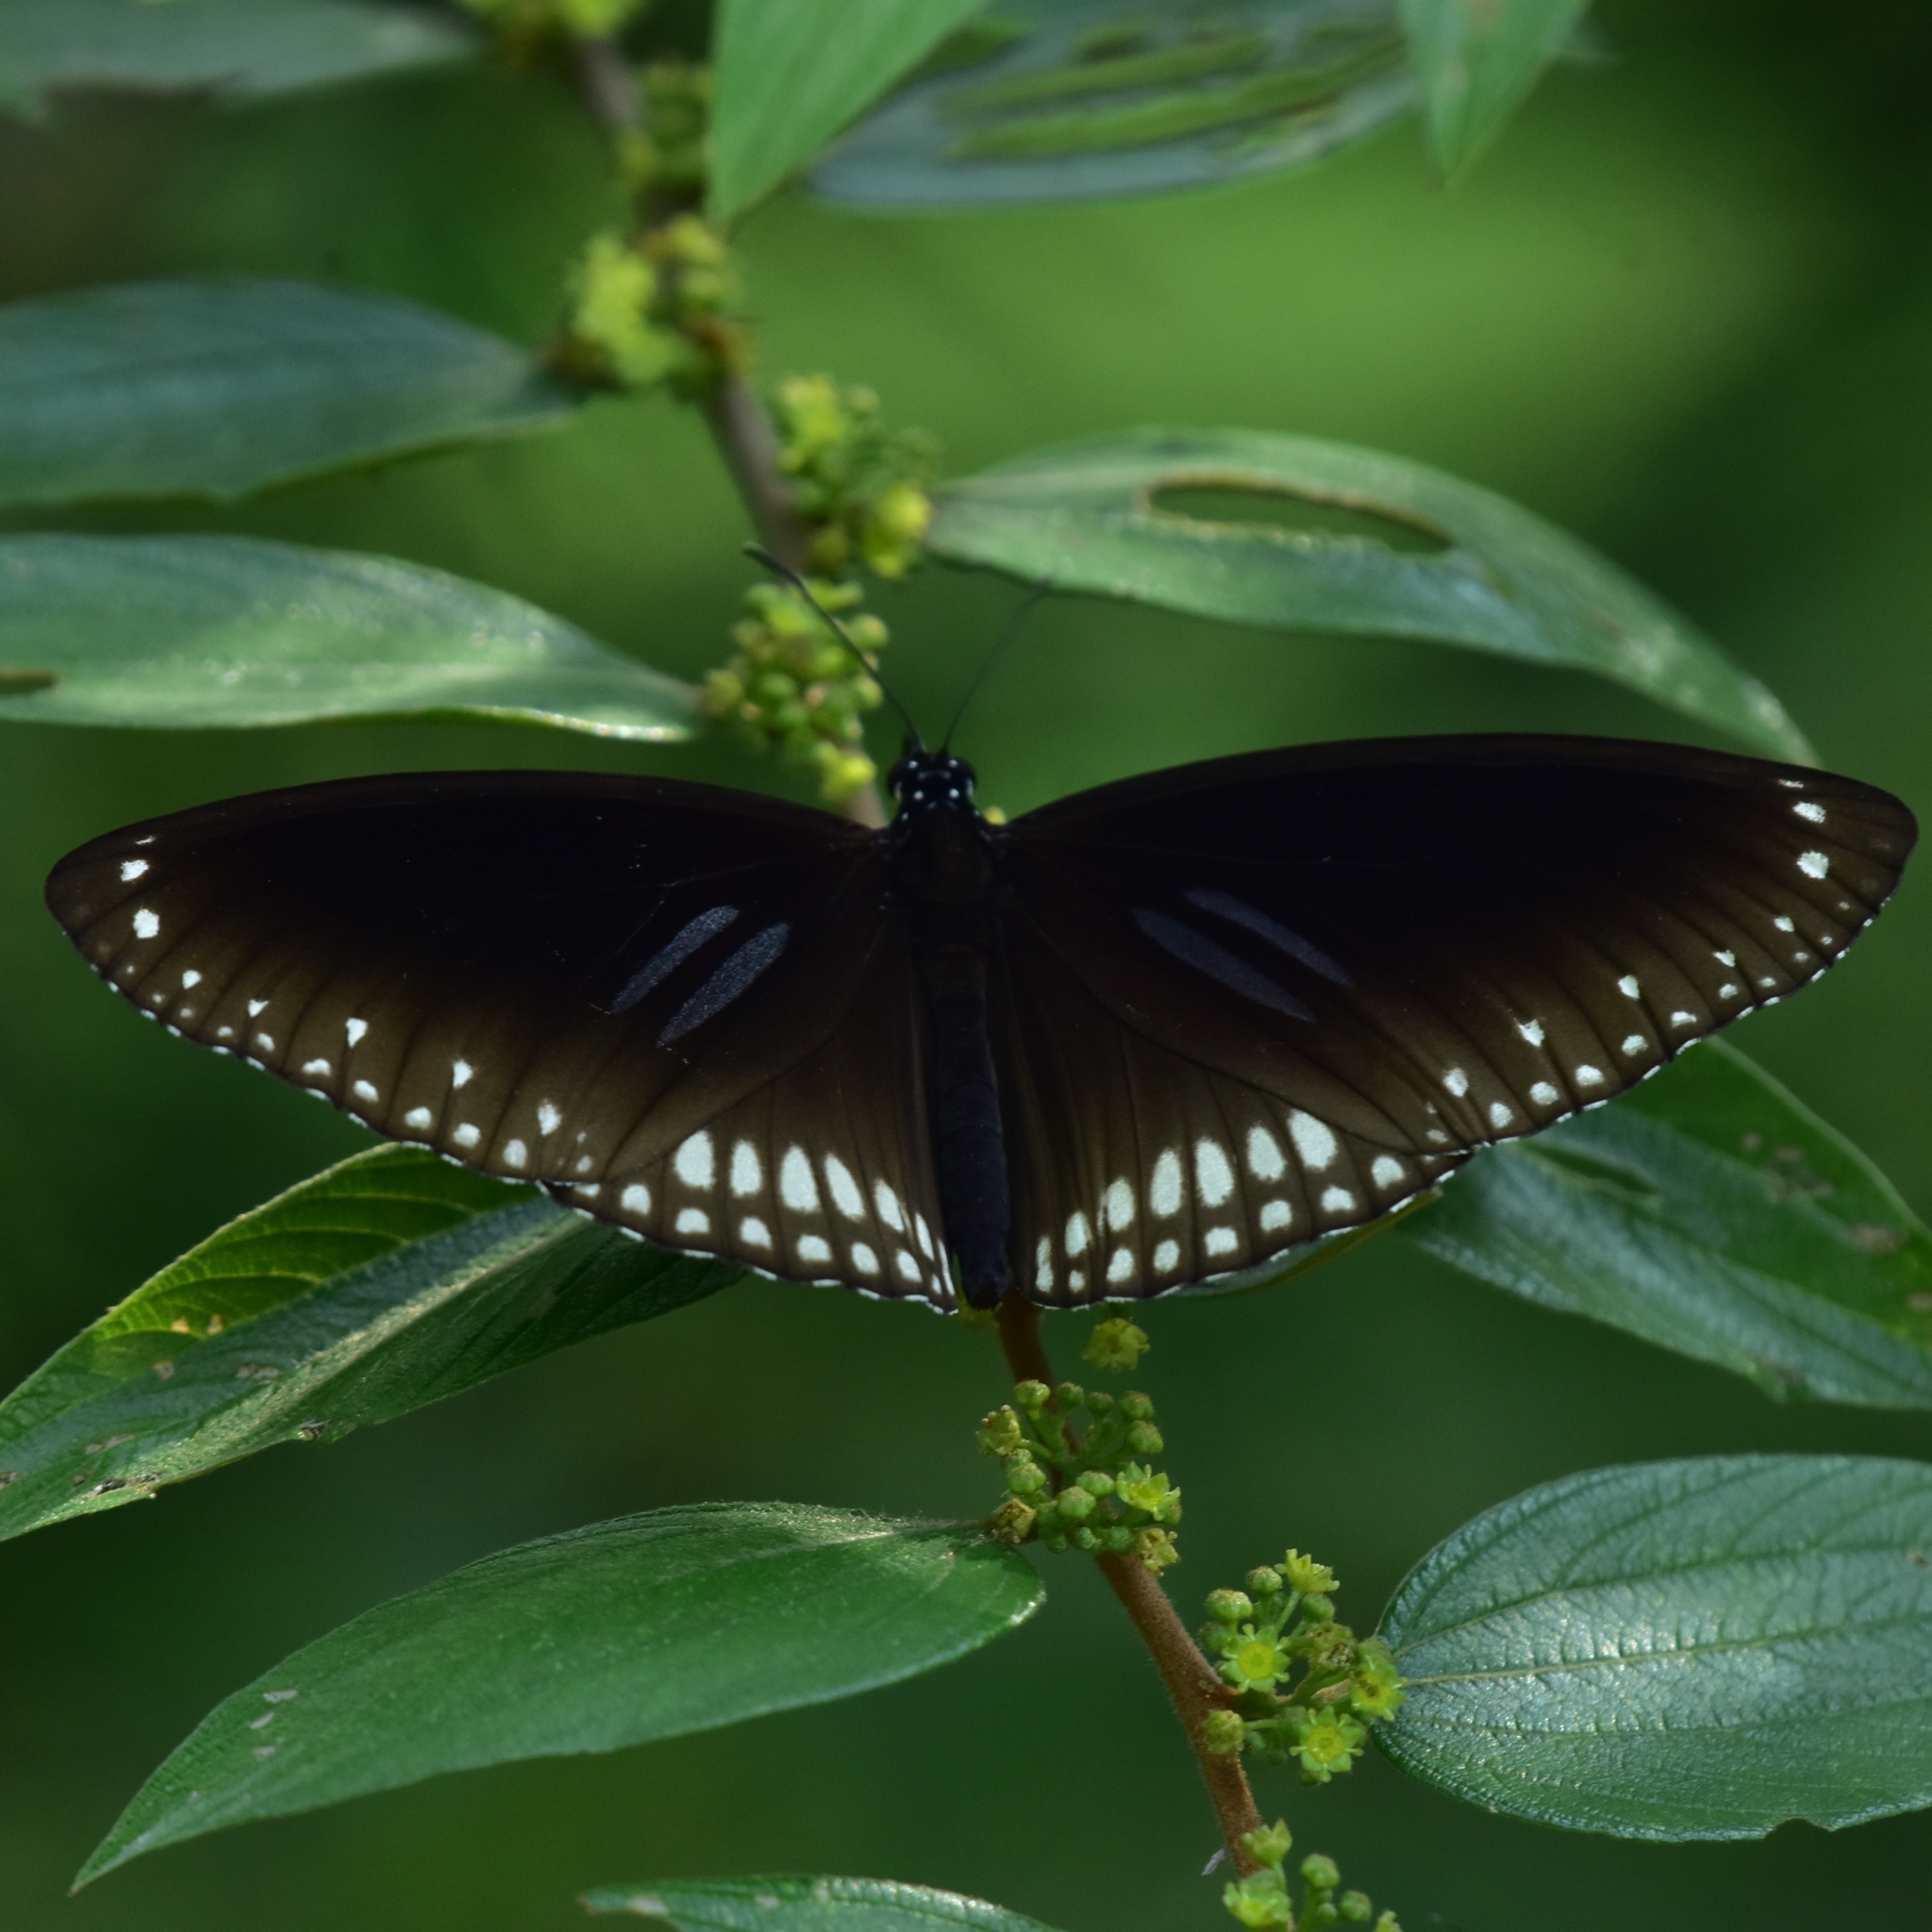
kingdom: Animalia
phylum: Arthropoda
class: Insecta
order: Lepidoptera
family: Nymphalidae
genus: Euploea
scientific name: Euploea sylvester
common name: Double-branded crow butterfly
